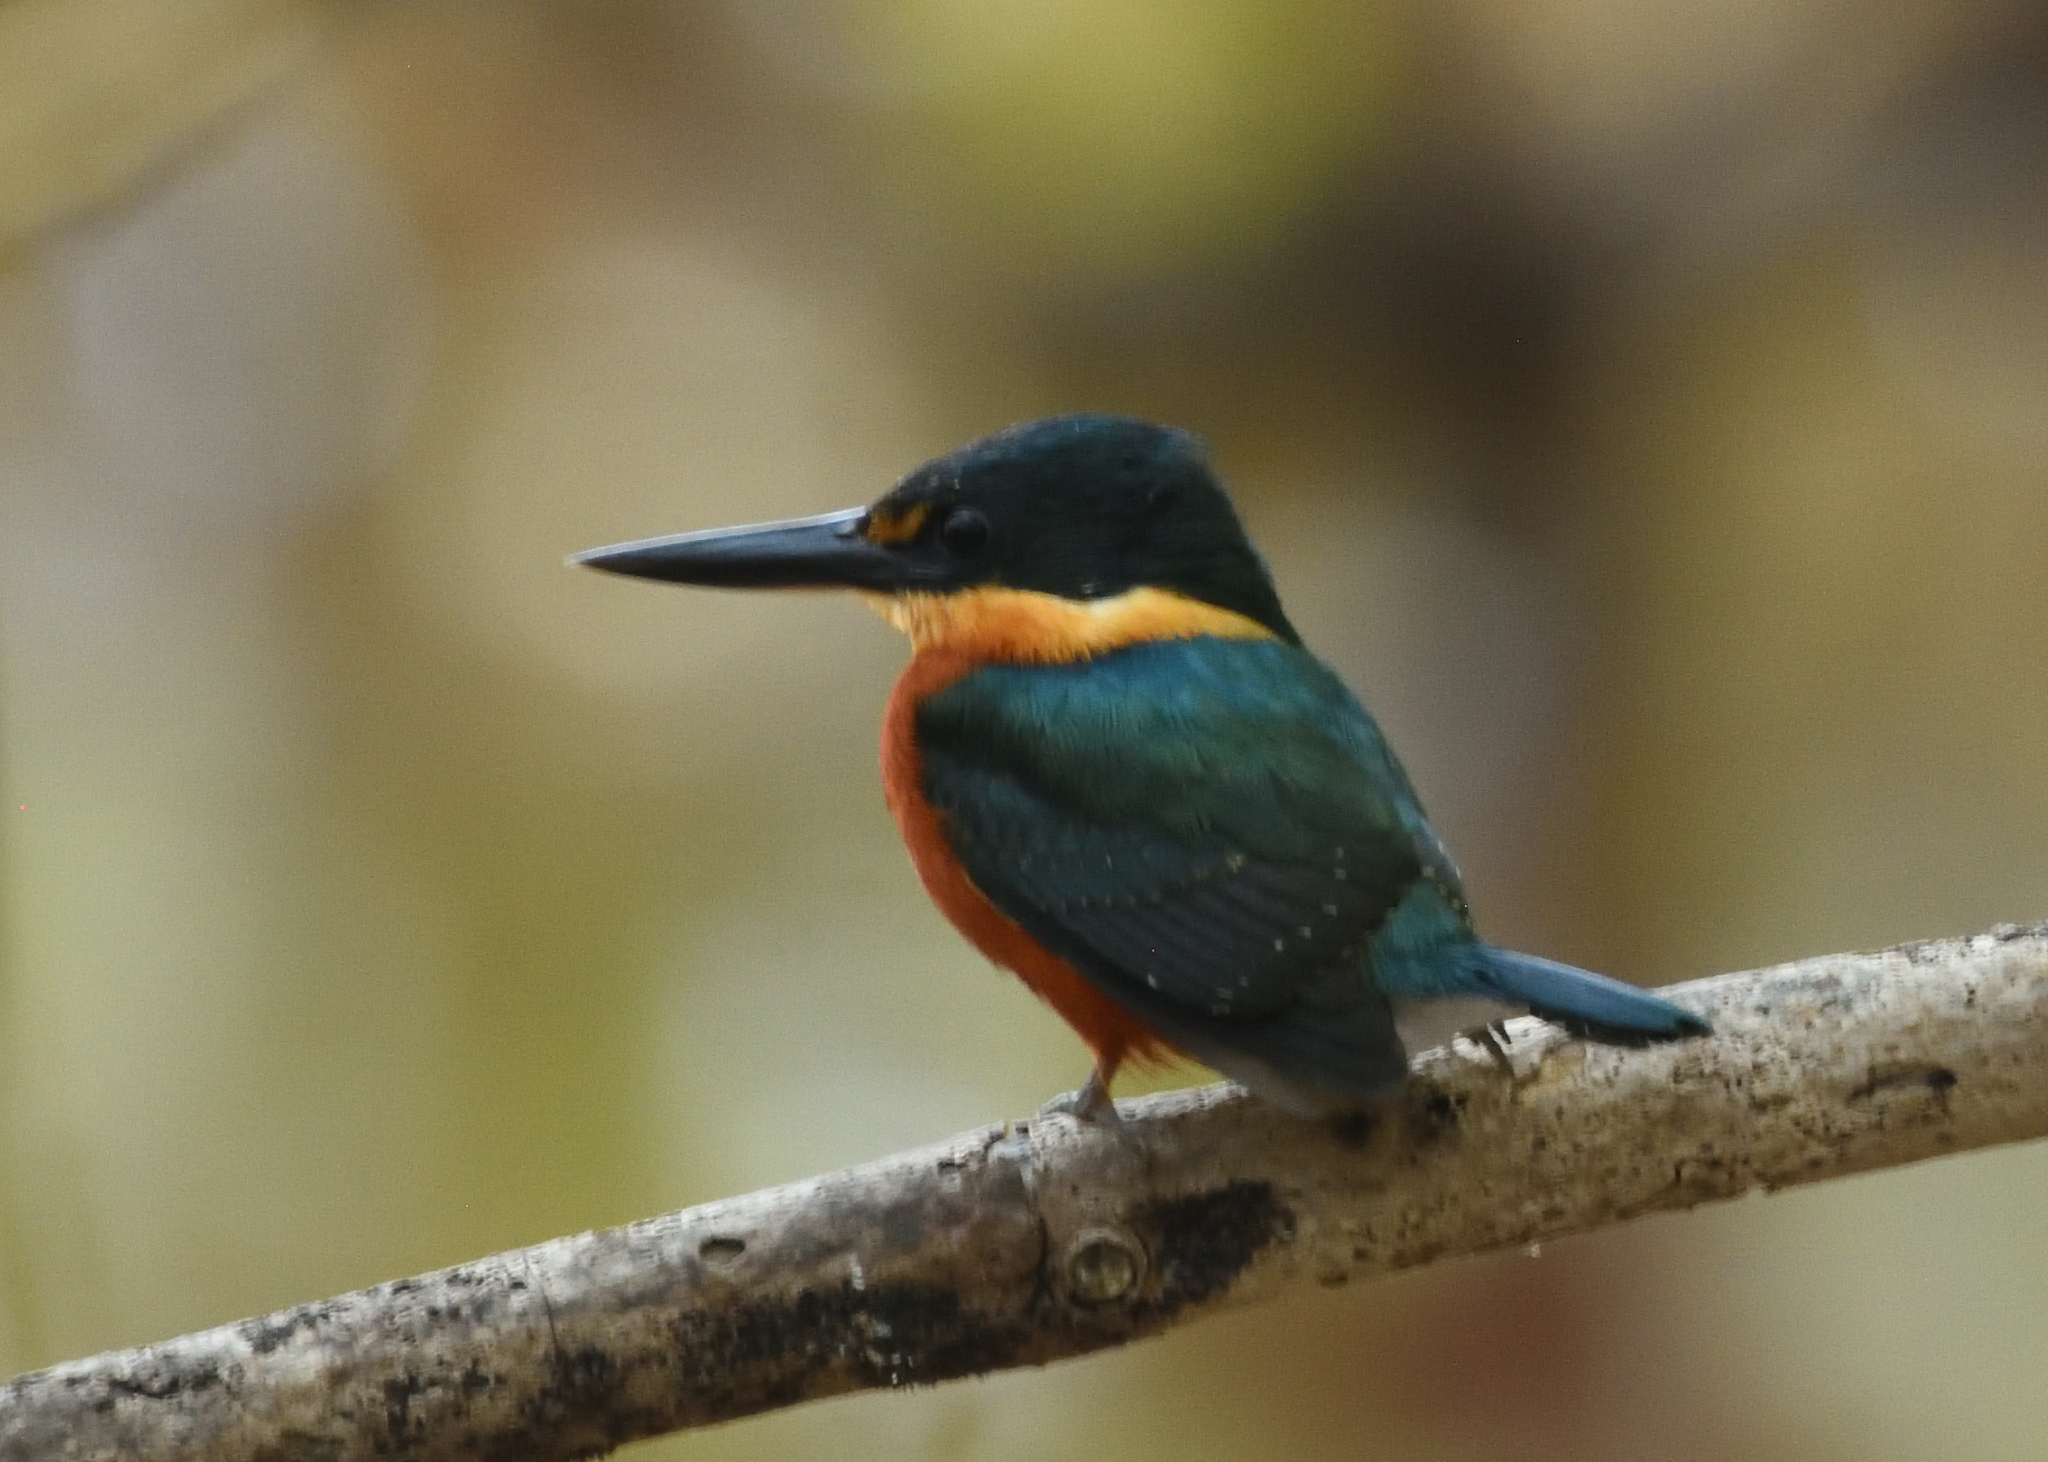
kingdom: Animalia
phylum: Chordata
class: Aves
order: Coraciiformes
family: Alcedinidae
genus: Chloroceryle
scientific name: Chloroceryle aenea
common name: American pygmy kingfisher
